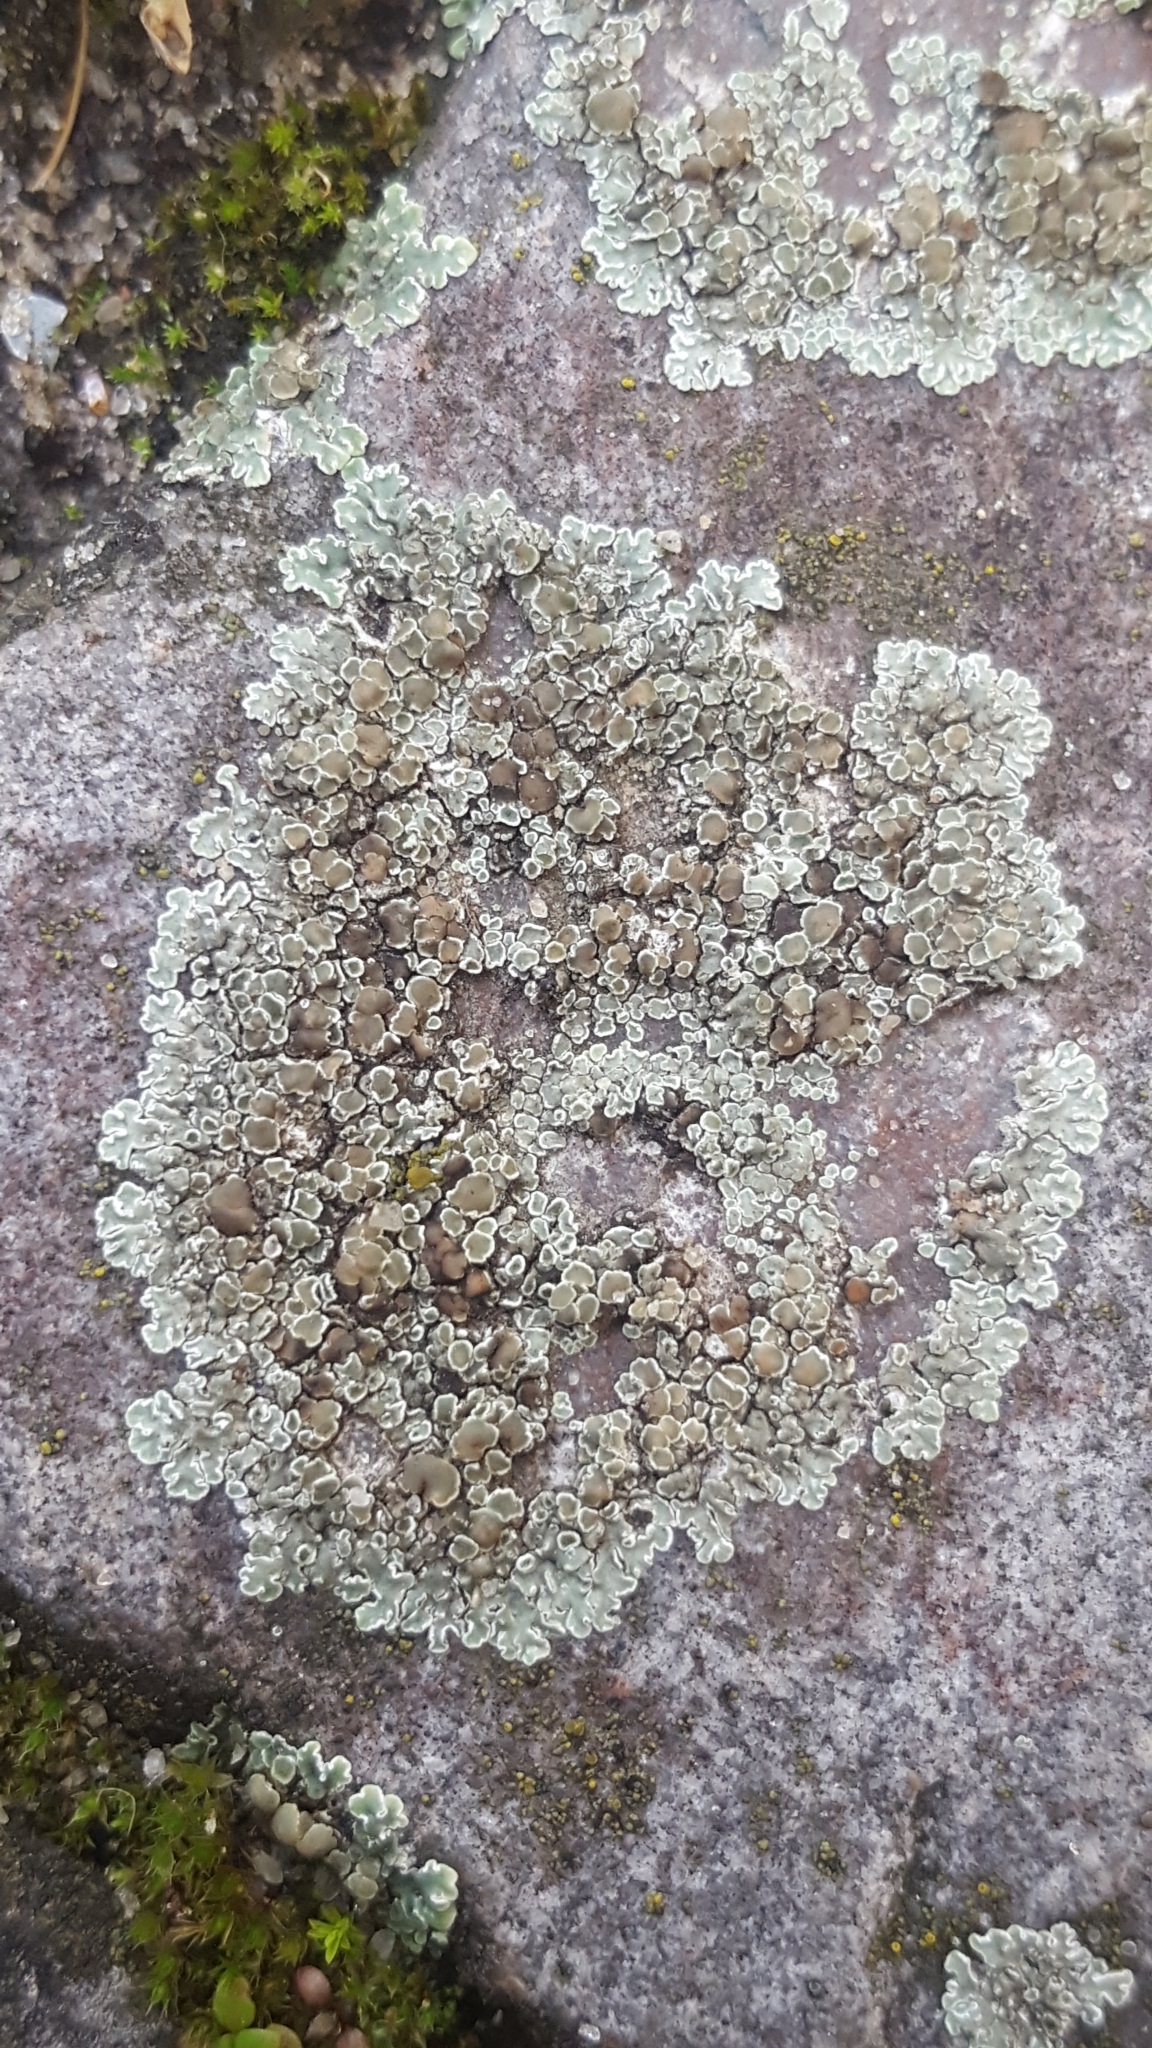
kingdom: Fungi
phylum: Ascomycota
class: Lecanoromycetes
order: Lecanorales
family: Lecanoraceae
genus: Protoparmeliopsis
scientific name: Protoparmeliopsis muralis
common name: Stonewall rim lichen
